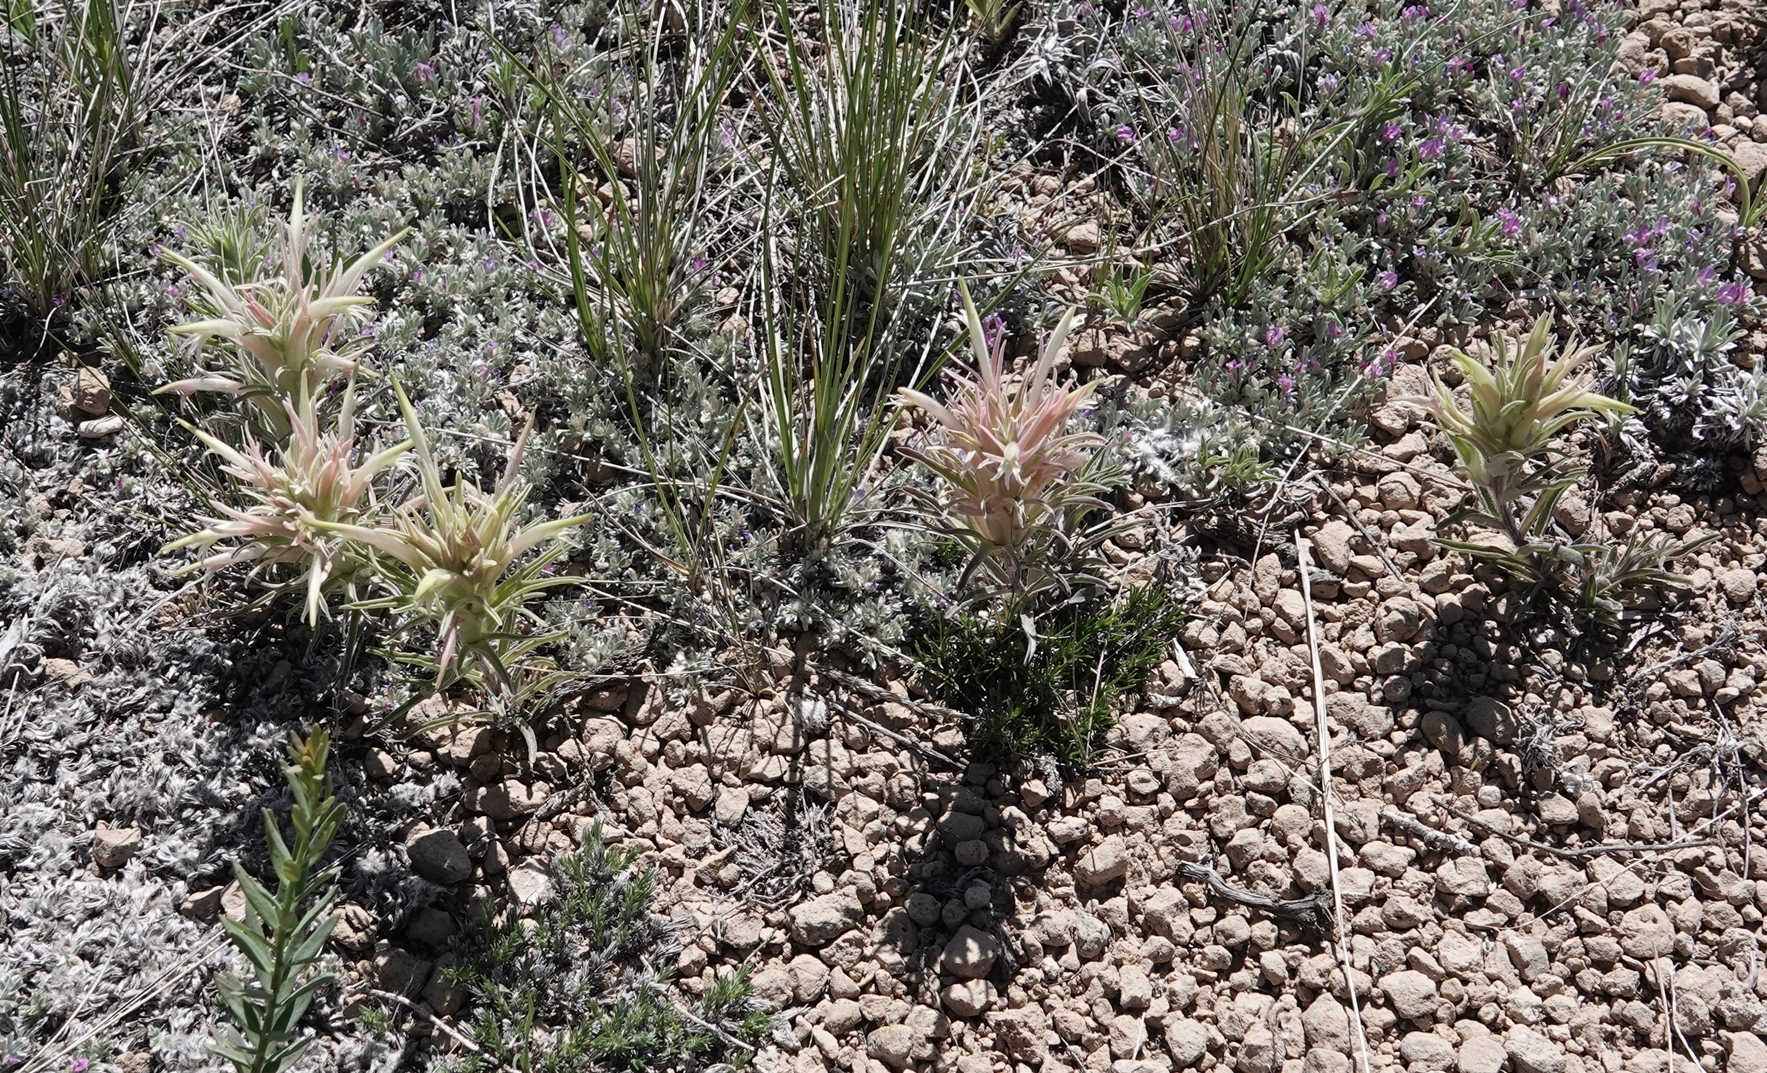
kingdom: Plantae
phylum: Tracheophyta
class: Magnoliopsida
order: Lamiales
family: Orobanchaceae
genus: Castilleja
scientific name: Castilleja sessiliflora
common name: Downy paintbrush
